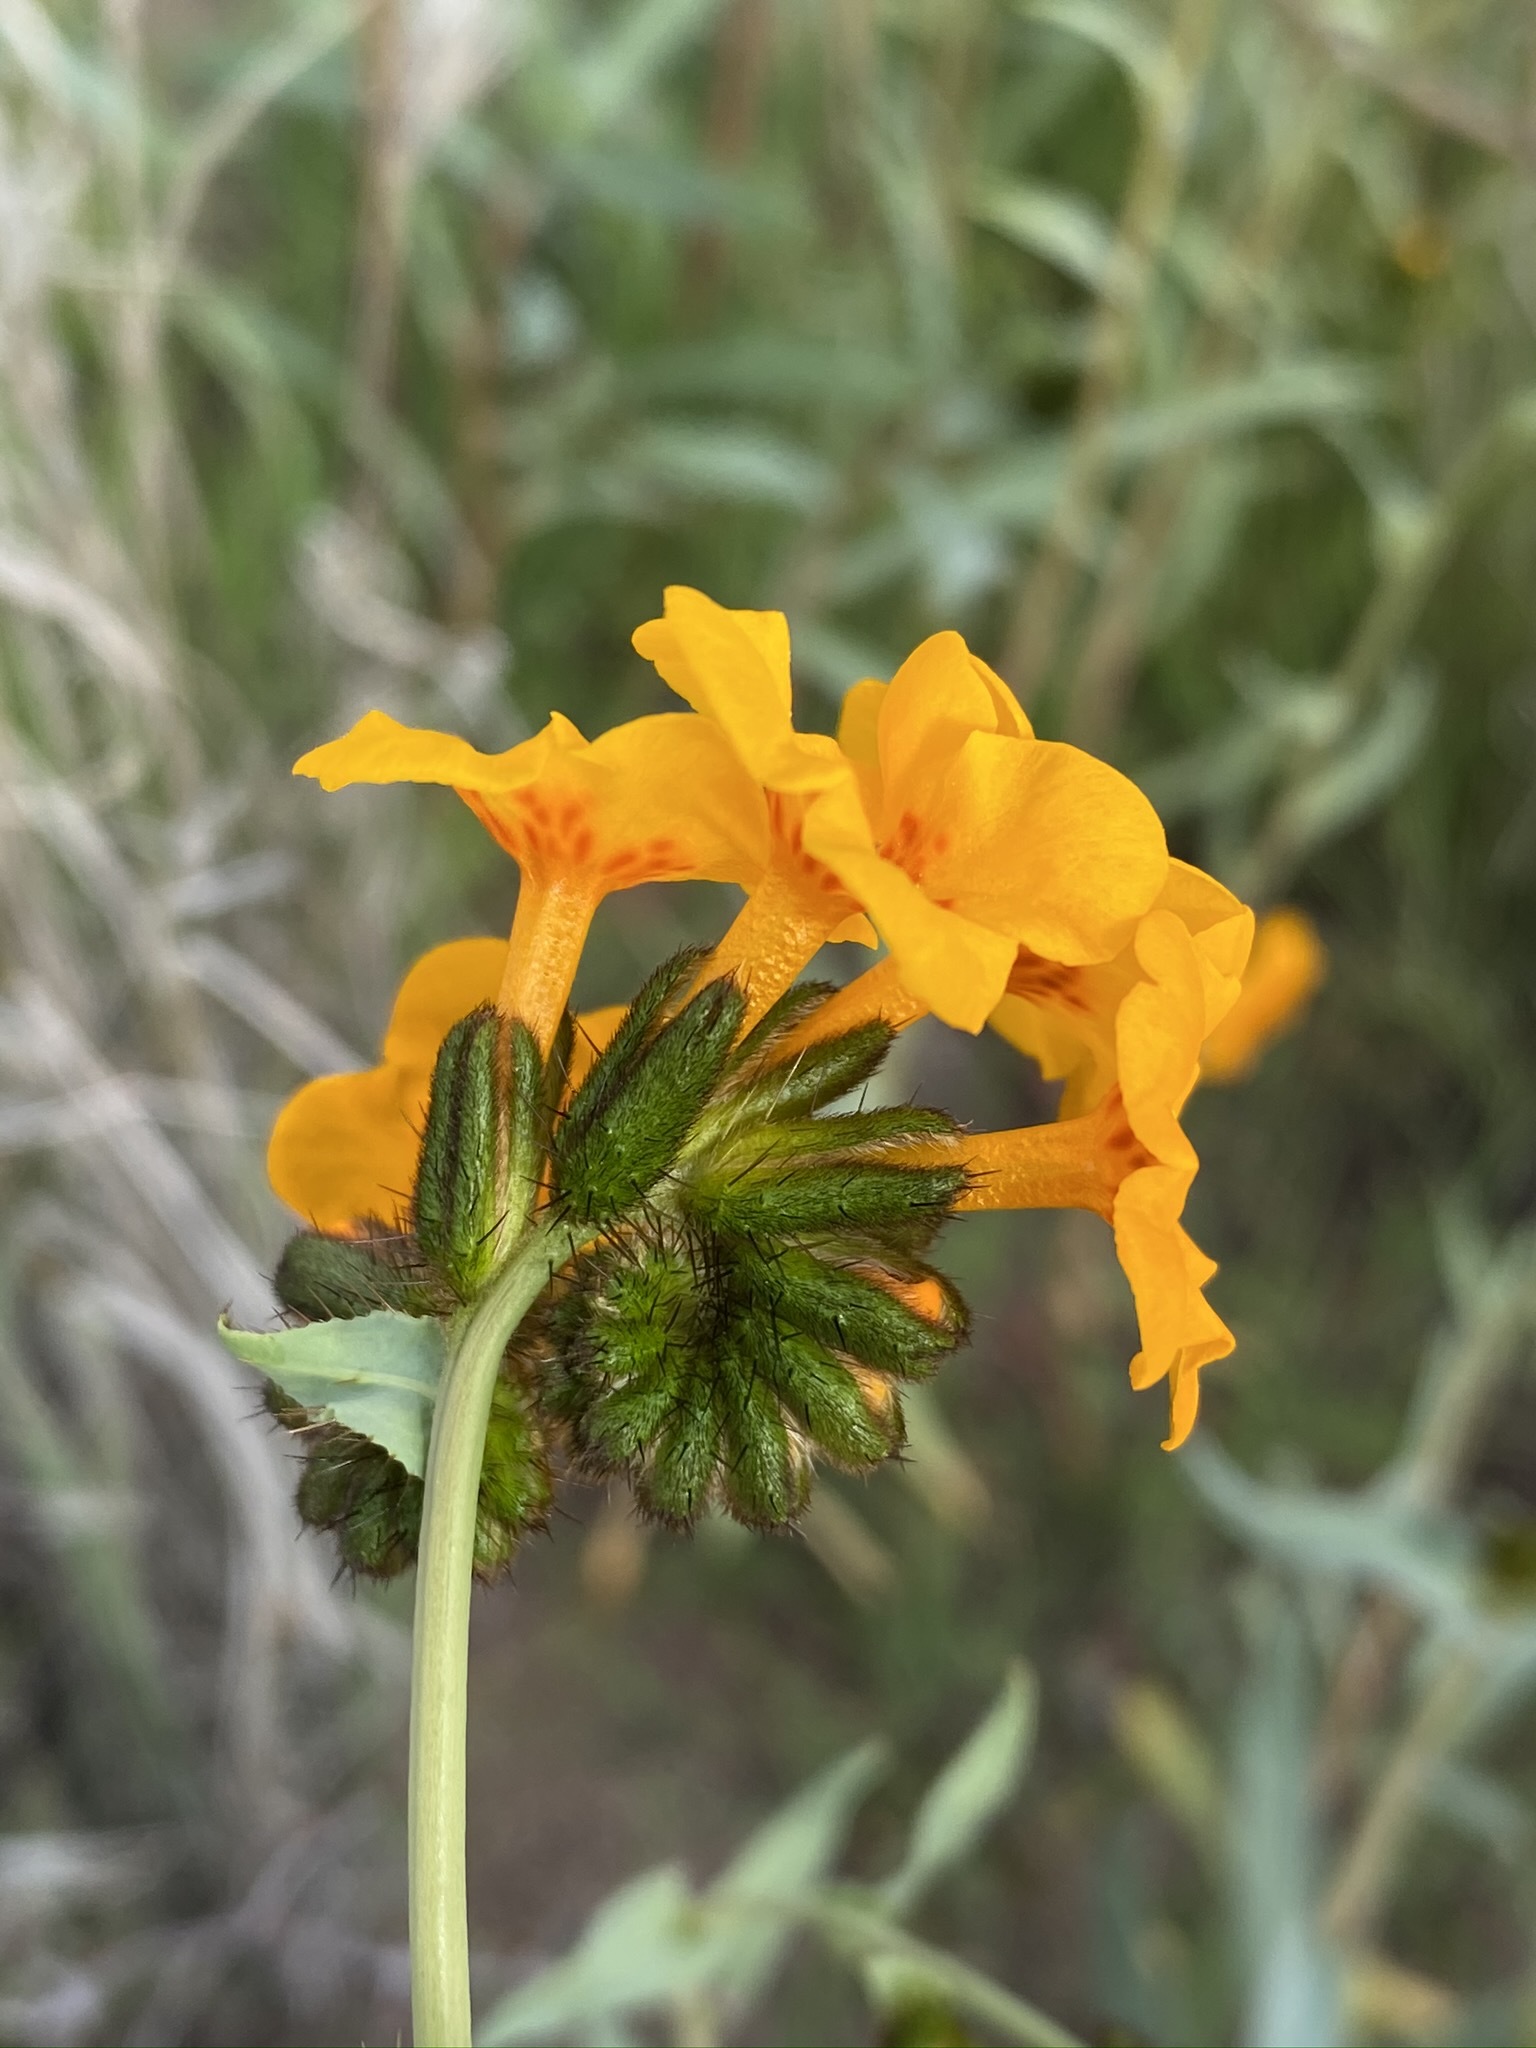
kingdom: Plantae
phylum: Tracheophyta
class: Magnoliopsida
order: Boraginales
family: Boraginaceae
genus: Amsinckia
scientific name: Amsinckia vernicosa
